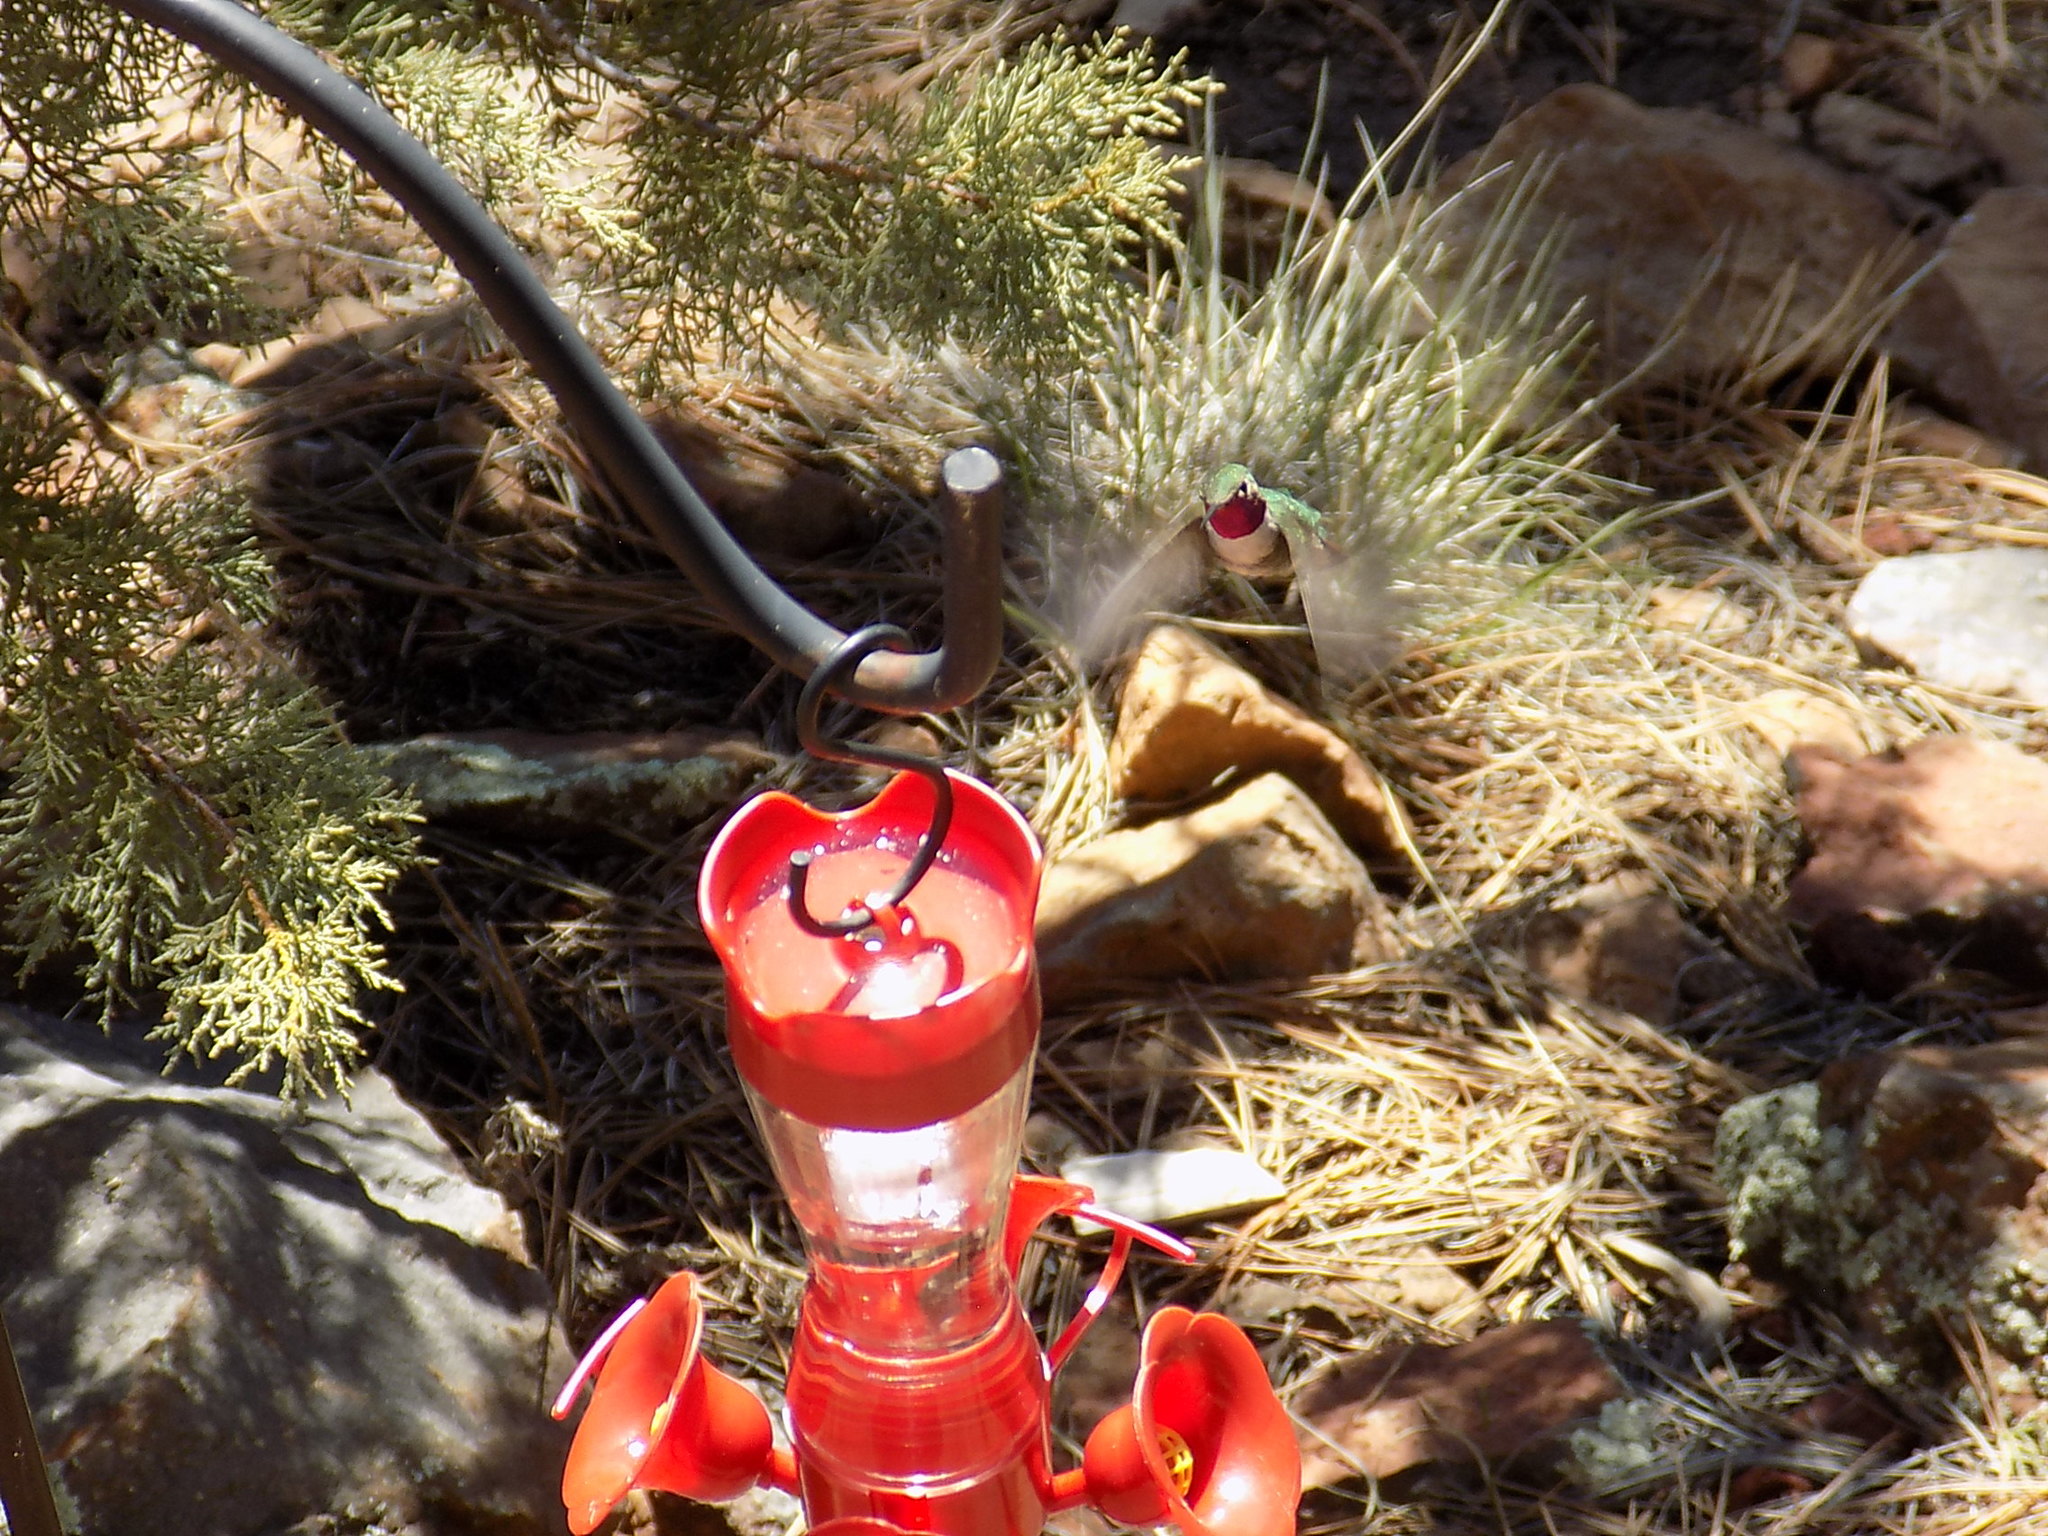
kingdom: Animalia
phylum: Chordata
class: Aves
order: Apodiformes
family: Trochilidae
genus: Selasphorus
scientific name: Selasphorus platycercus
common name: Broad-tailed hummingbird
